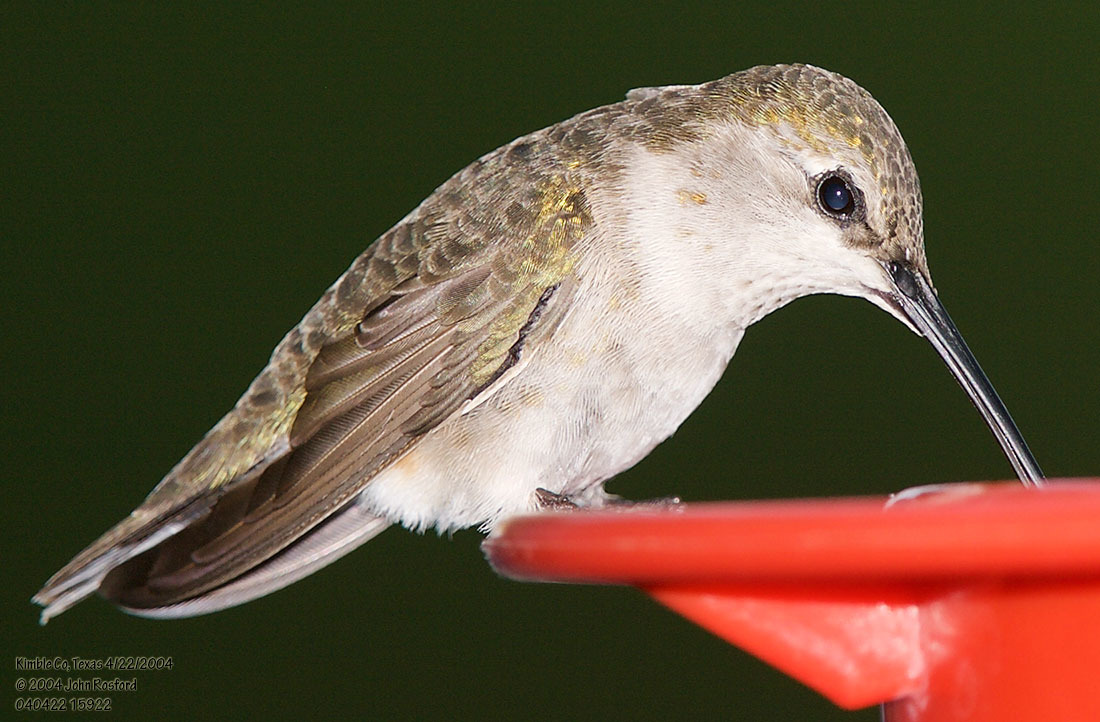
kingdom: Animalia
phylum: Chordata
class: Aves
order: Apodiformes
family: Trochilidae
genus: Archilochus
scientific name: Archilochus alexandri
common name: Black-chinned hummingbird
